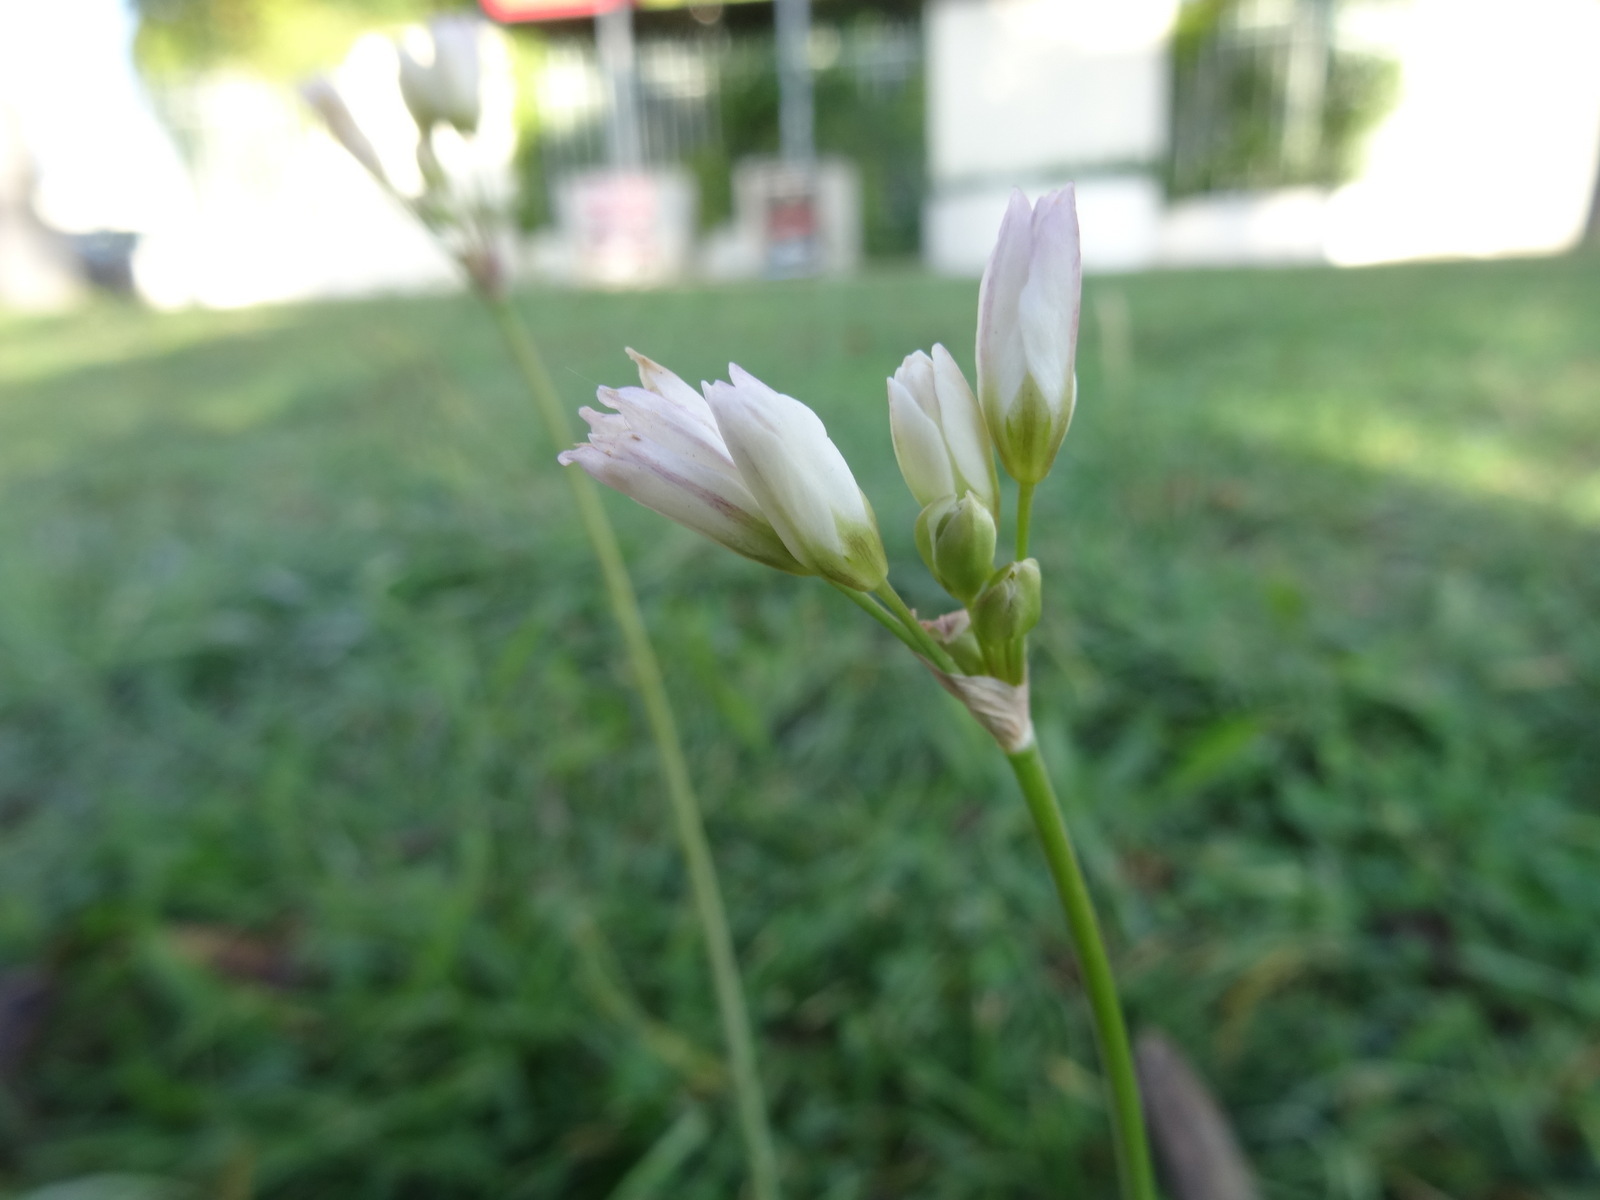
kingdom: Plantae
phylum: Tracheophyta
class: Liliopsida
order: Asparagales
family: Amaryllidaceae
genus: Nothoscordum
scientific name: Nothoscordum borbonicum
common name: Honeybells
